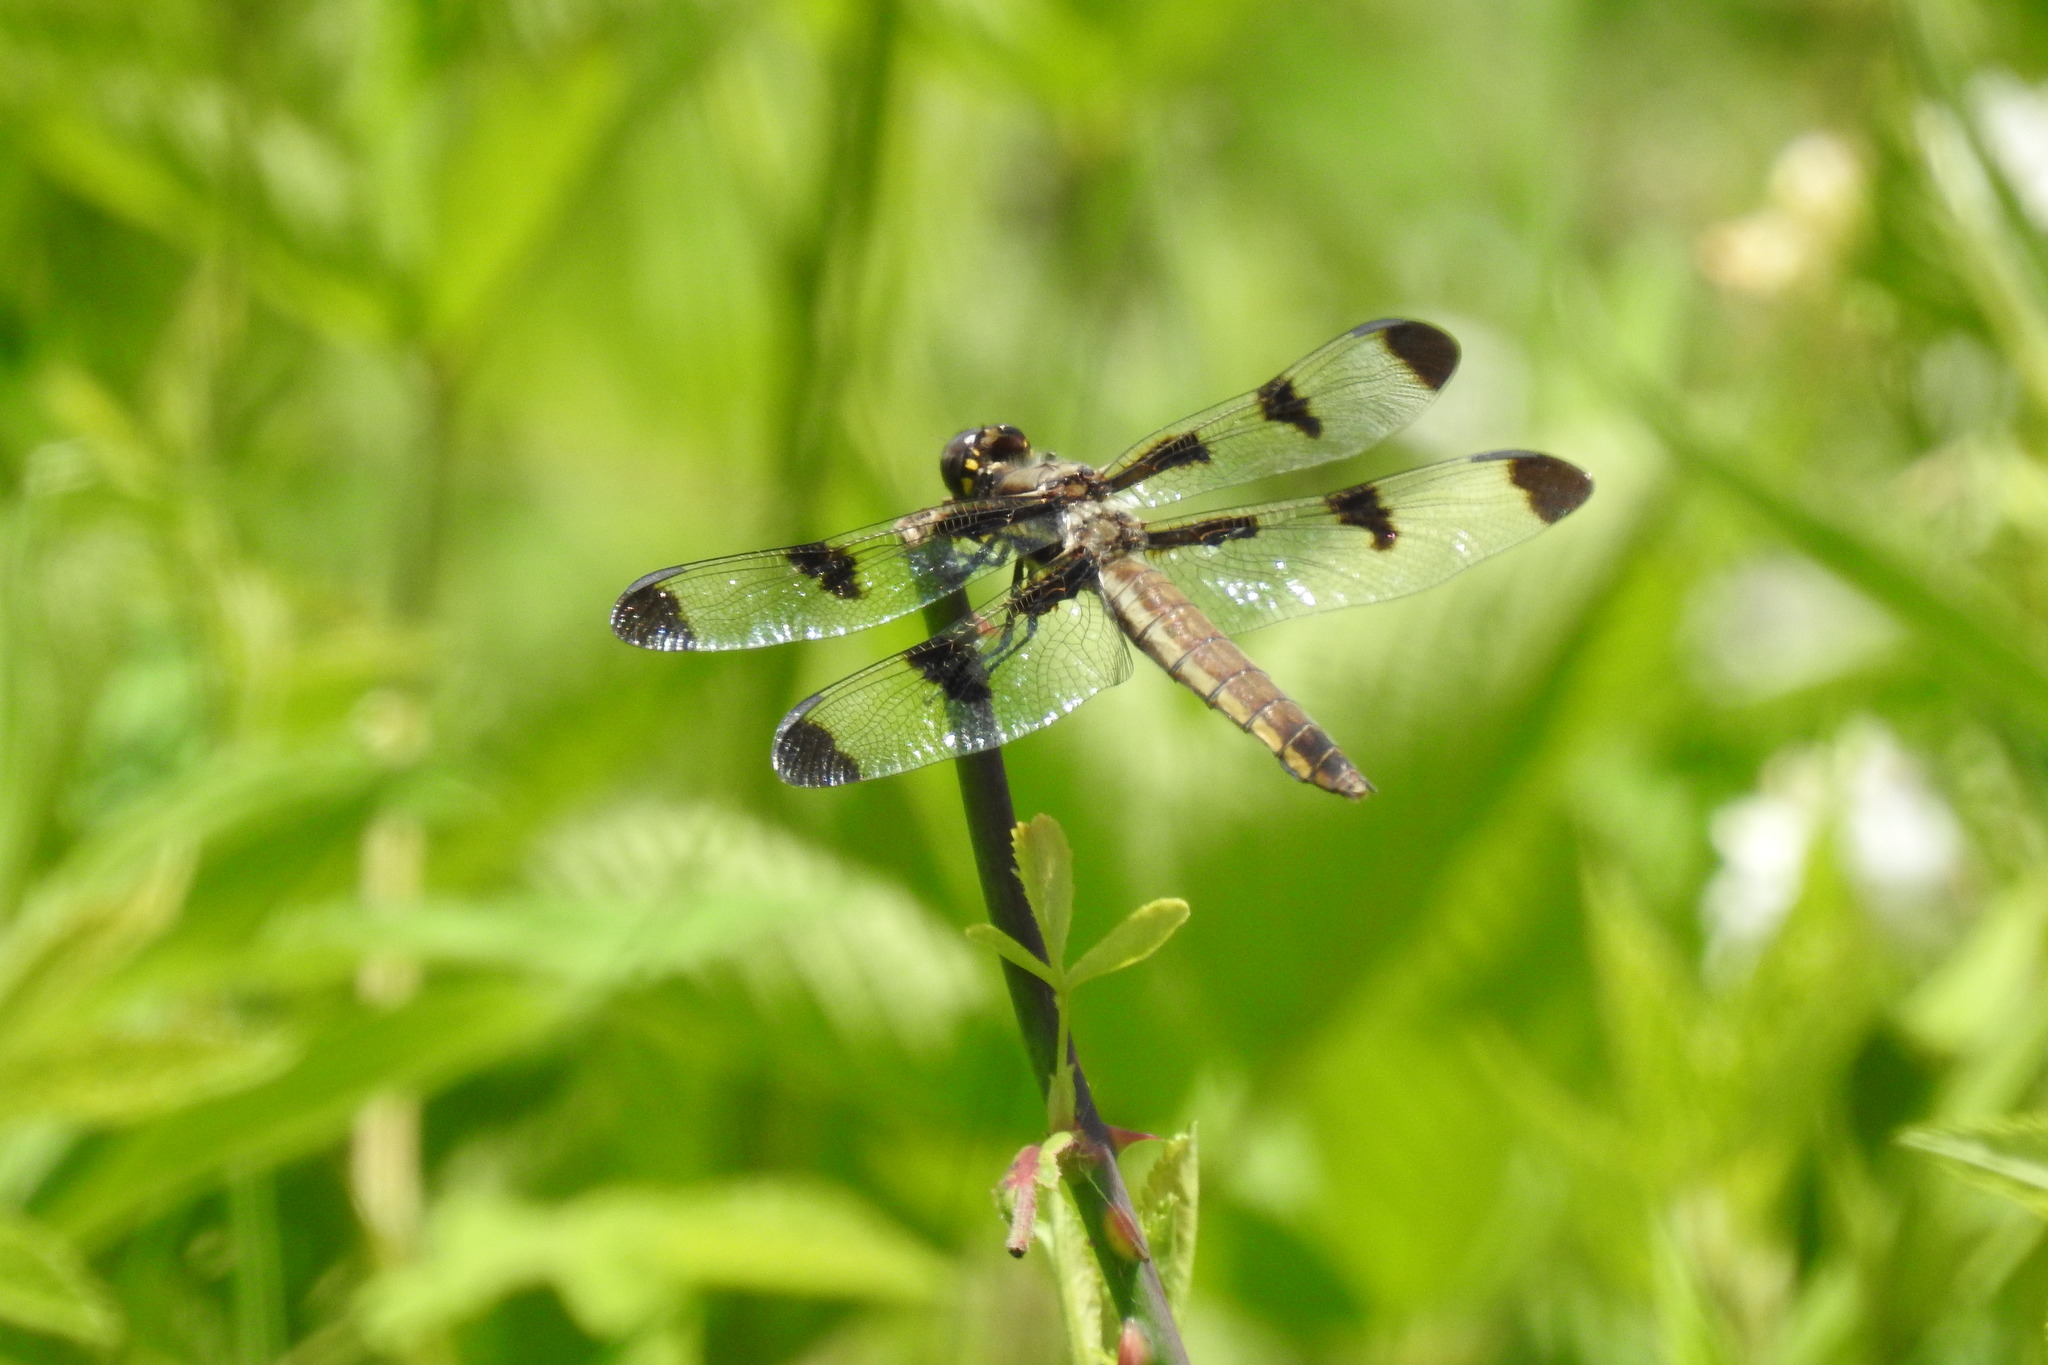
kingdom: Animalia
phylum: Arthropoda
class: Insecta
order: Odonata
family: Libellulidae
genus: Libellula
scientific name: Libellula pulchella
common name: Twelve-spotted skimmer
